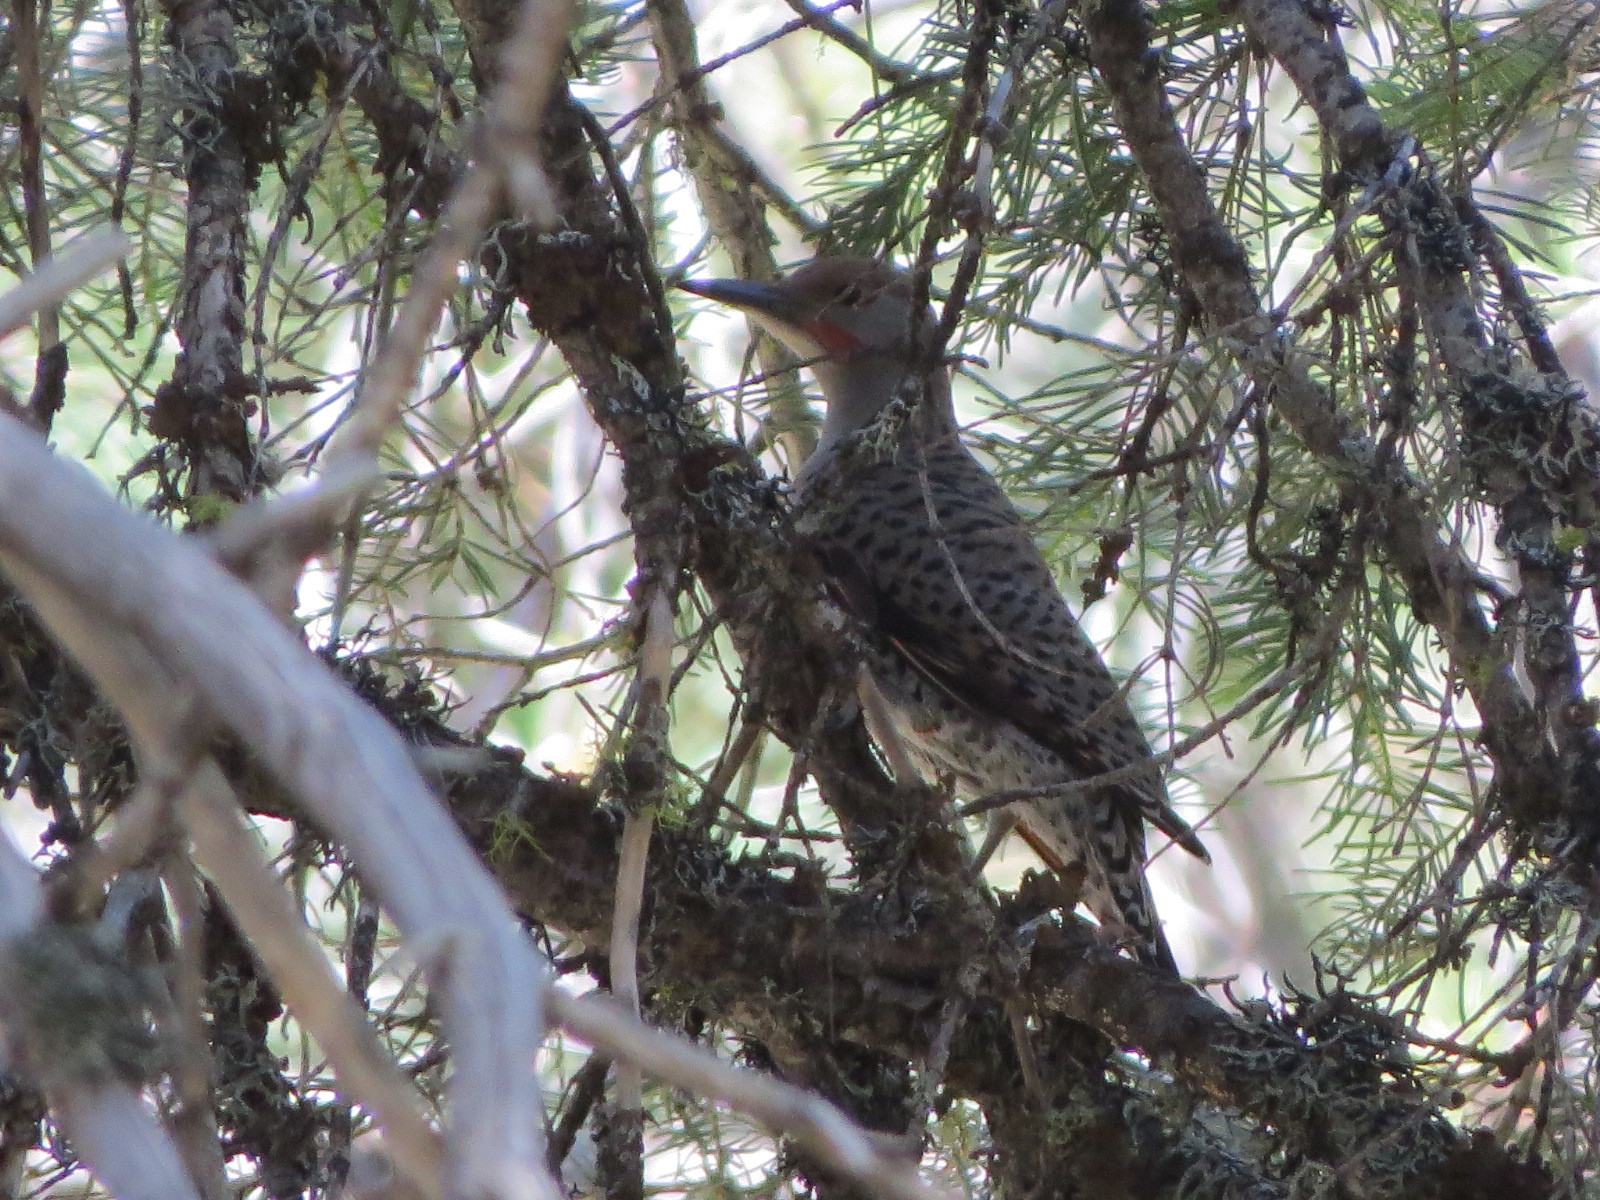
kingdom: Animalia
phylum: Chordata
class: Aves
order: Piciformes
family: Picidae
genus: Colaptes
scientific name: Colaptes auratus
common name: Northern flicker
